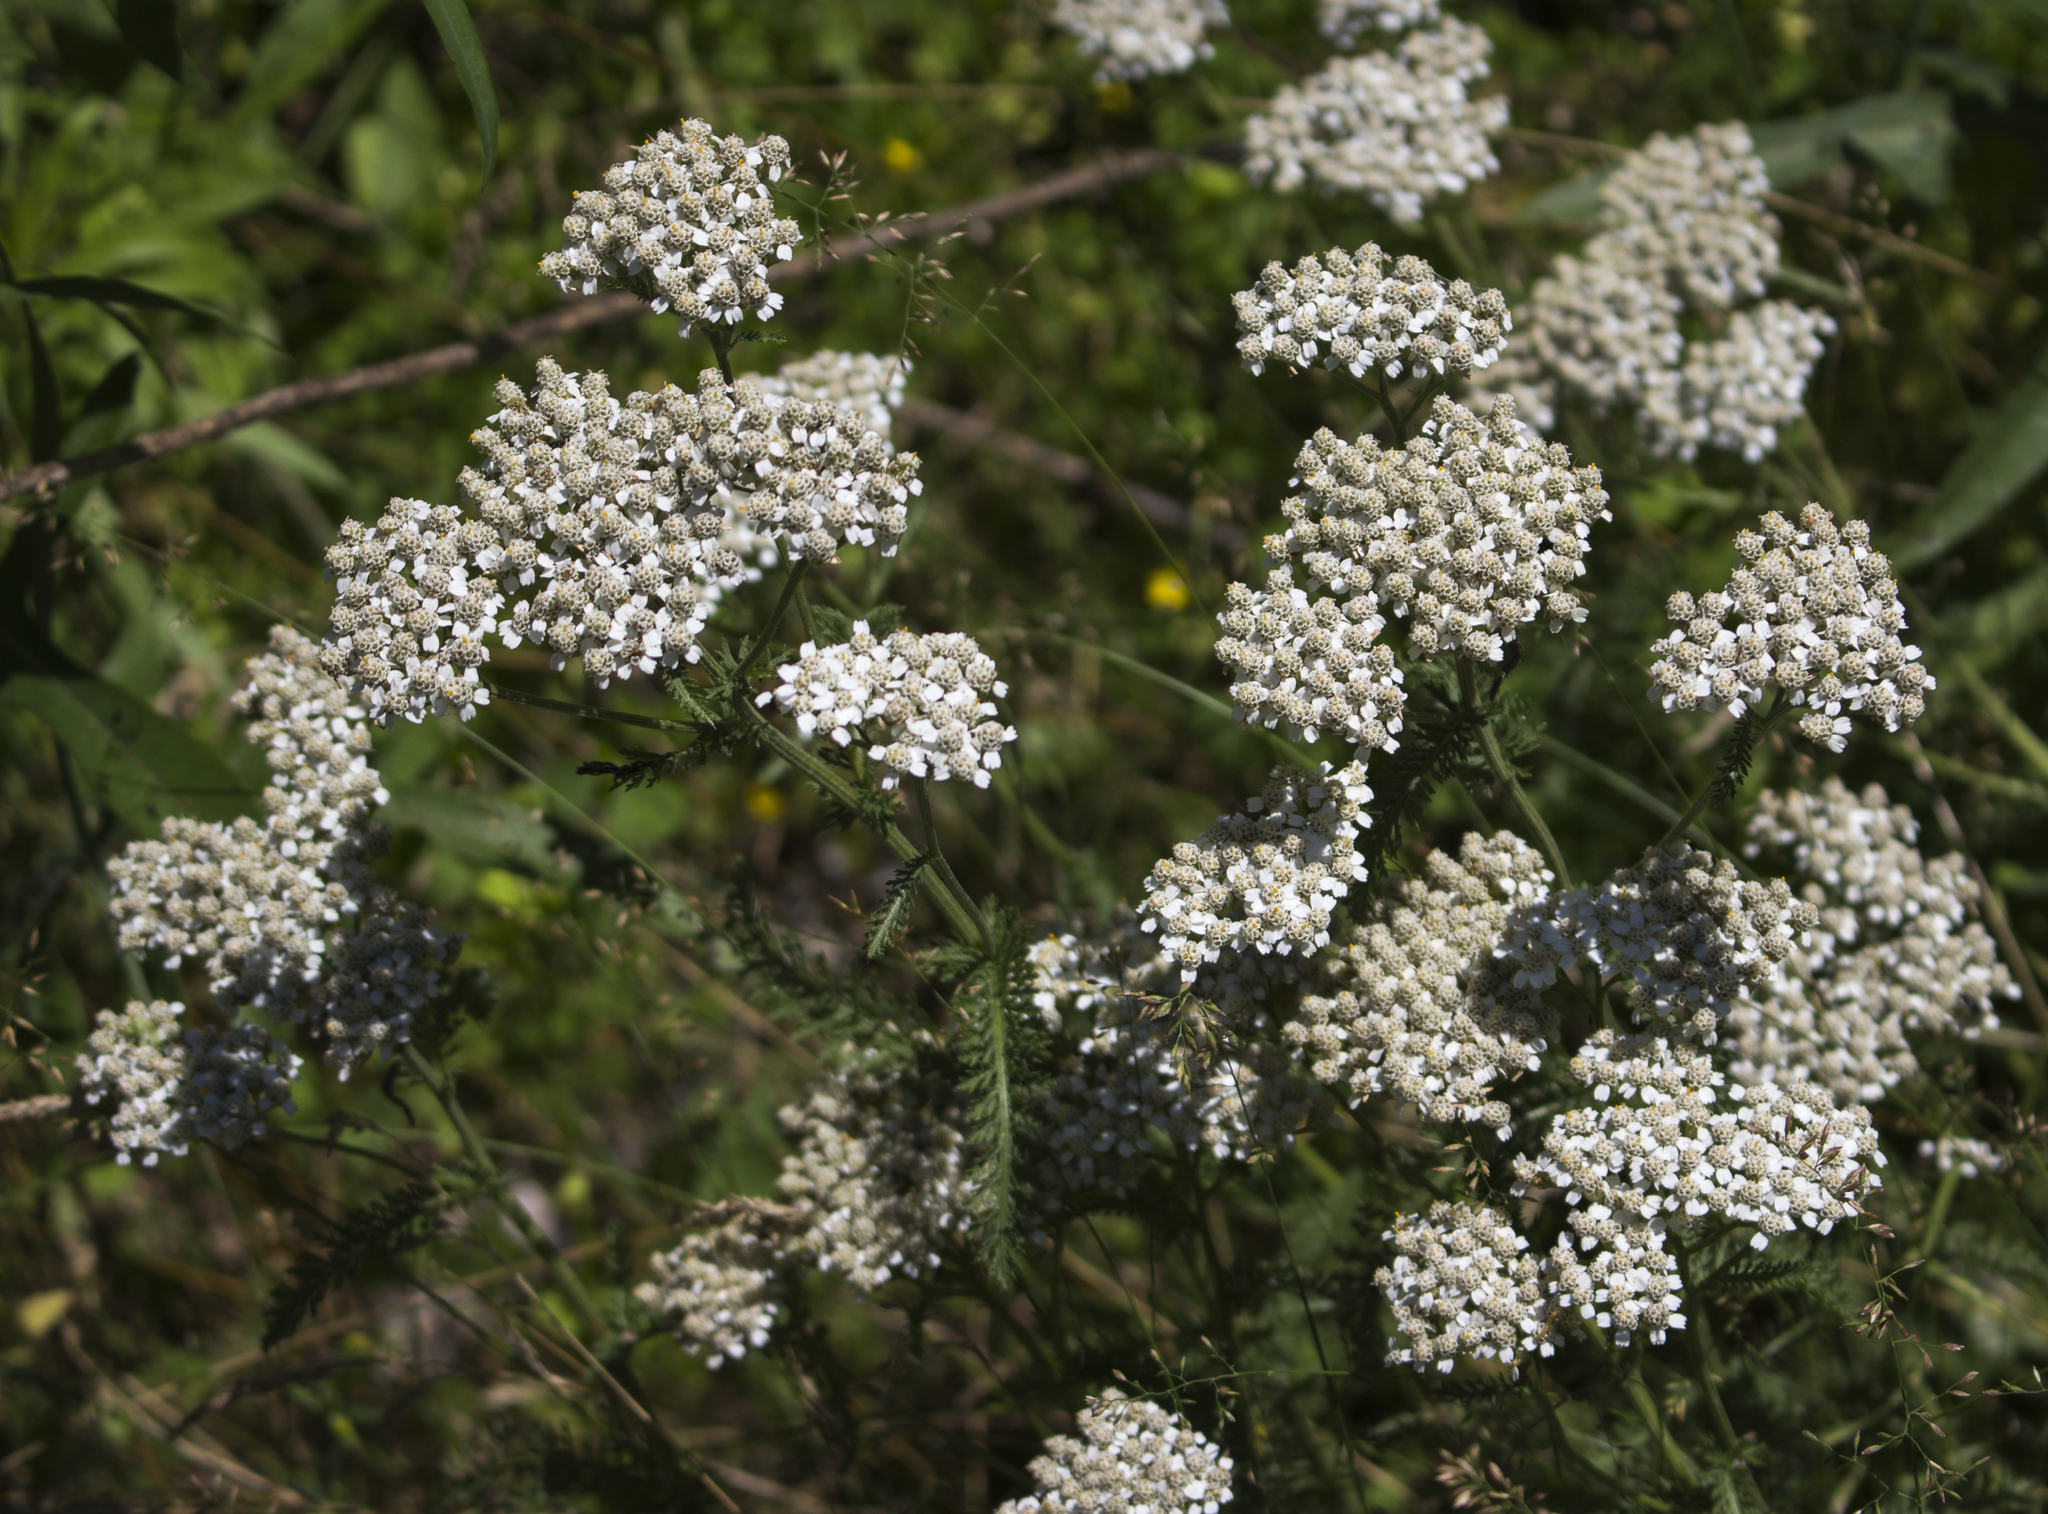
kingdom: Plantae
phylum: Tracheophyta
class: Magnoliopsida
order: Asterales
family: Asteraceae
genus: Achillea
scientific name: Achillea millefolium
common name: Yarrow
